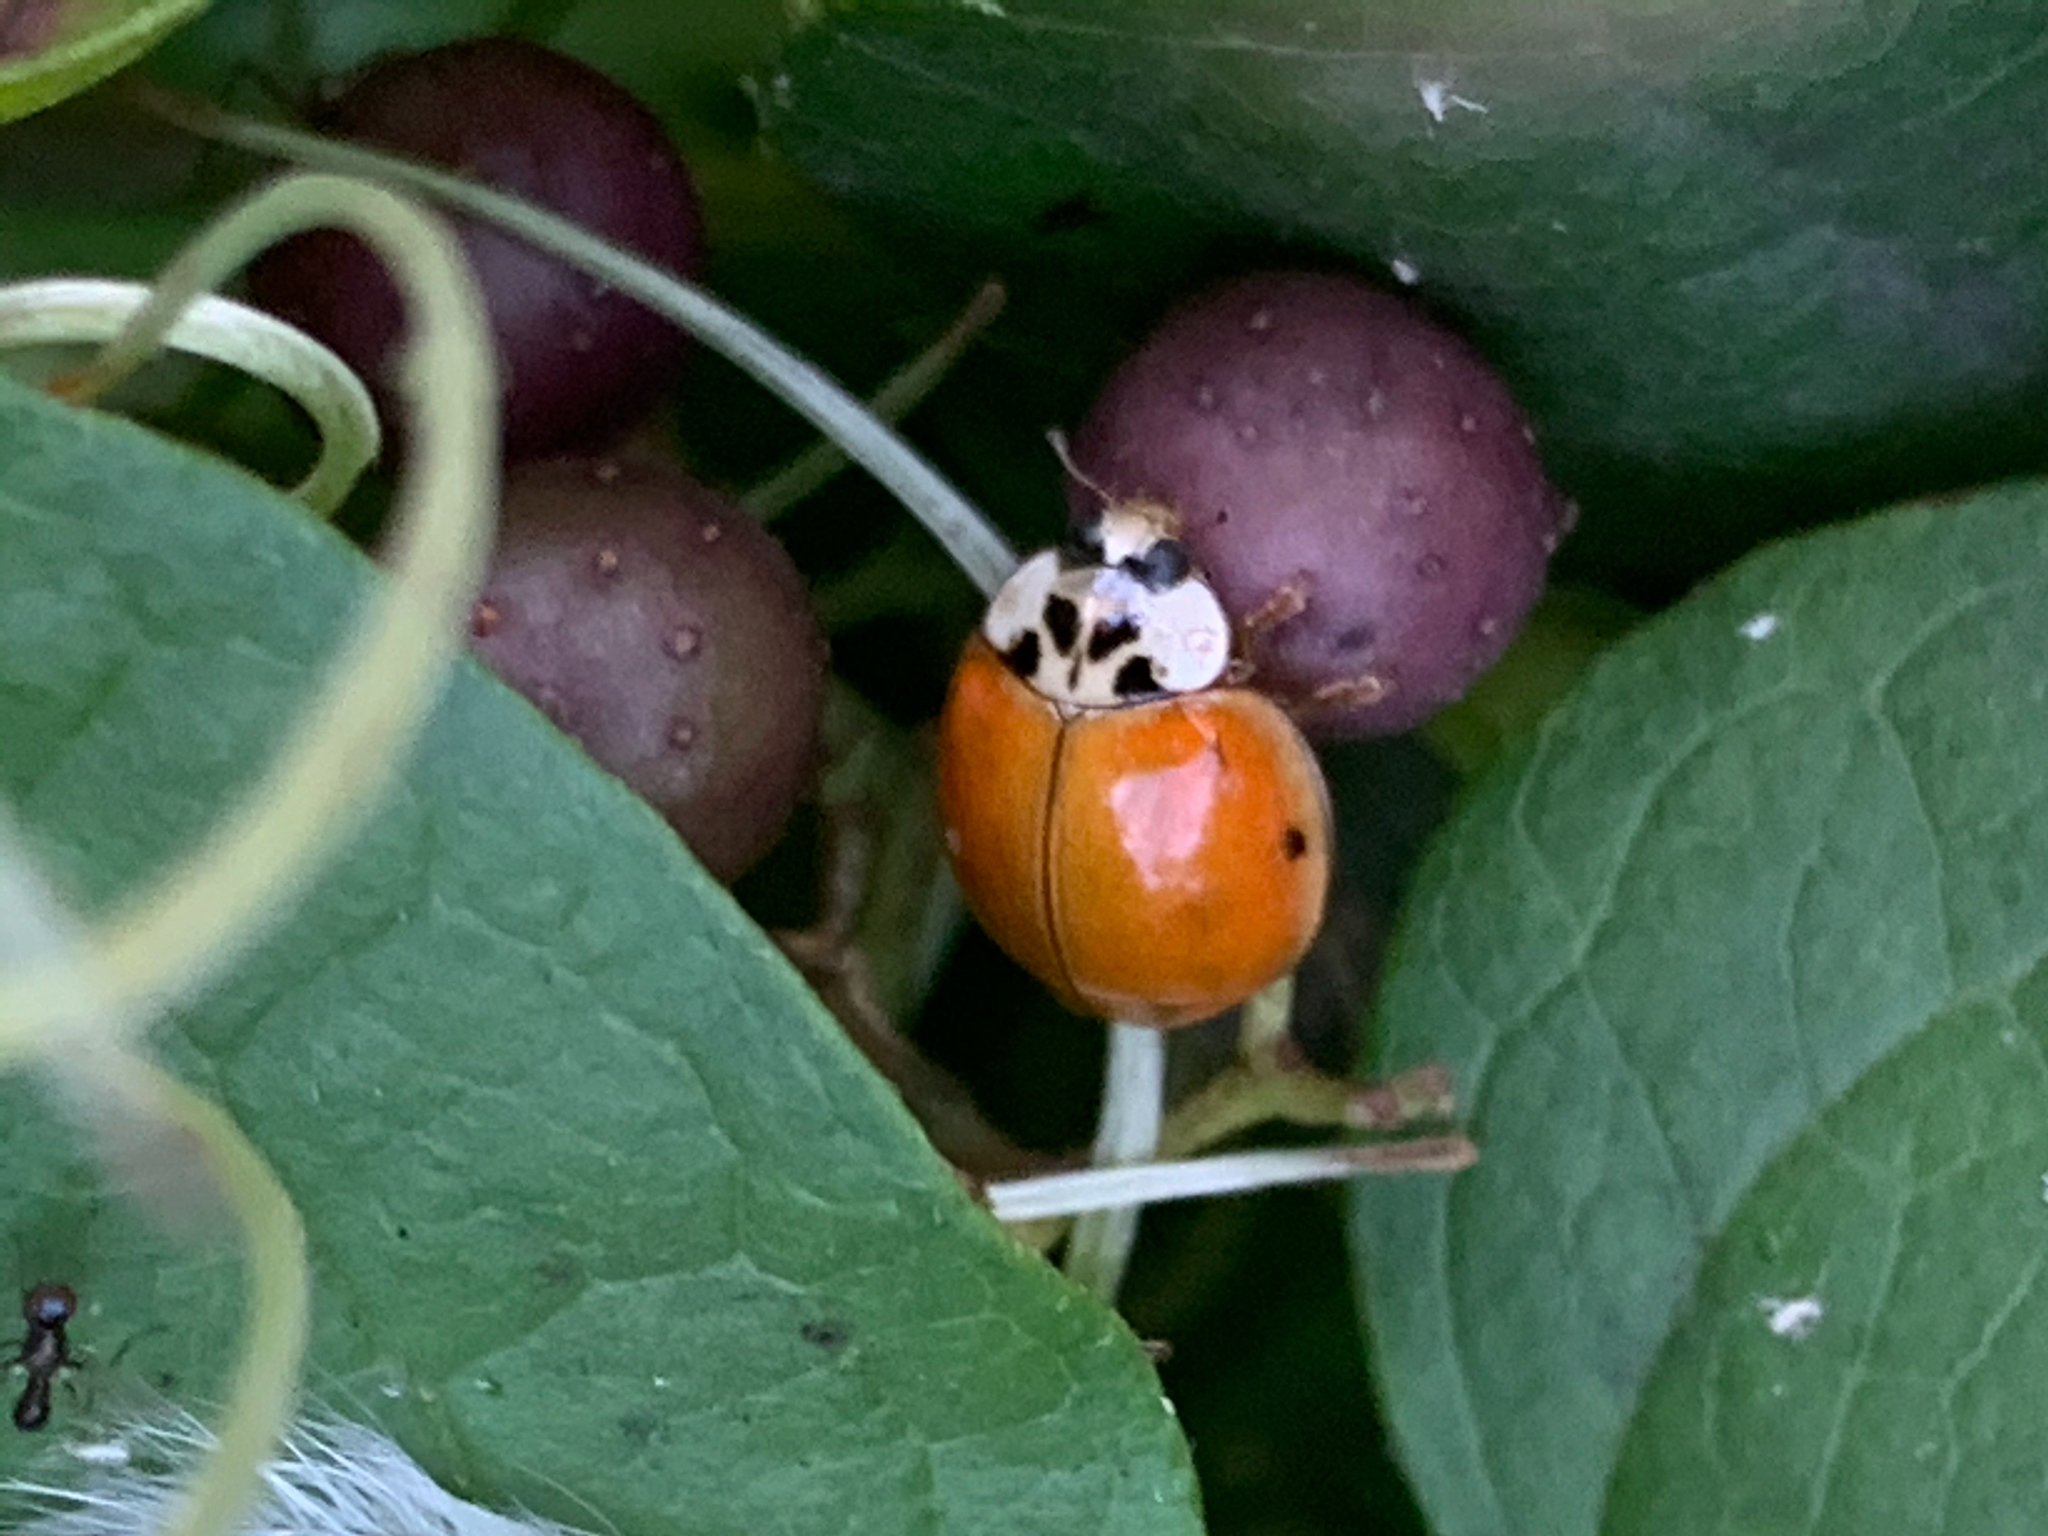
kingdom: Animalia
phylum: Arthropoda
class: Insecta
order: Coleoptera
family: Coccinellidae
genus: Harmonia
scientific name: Harmonia axyridis
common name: Harlequin ladybird
